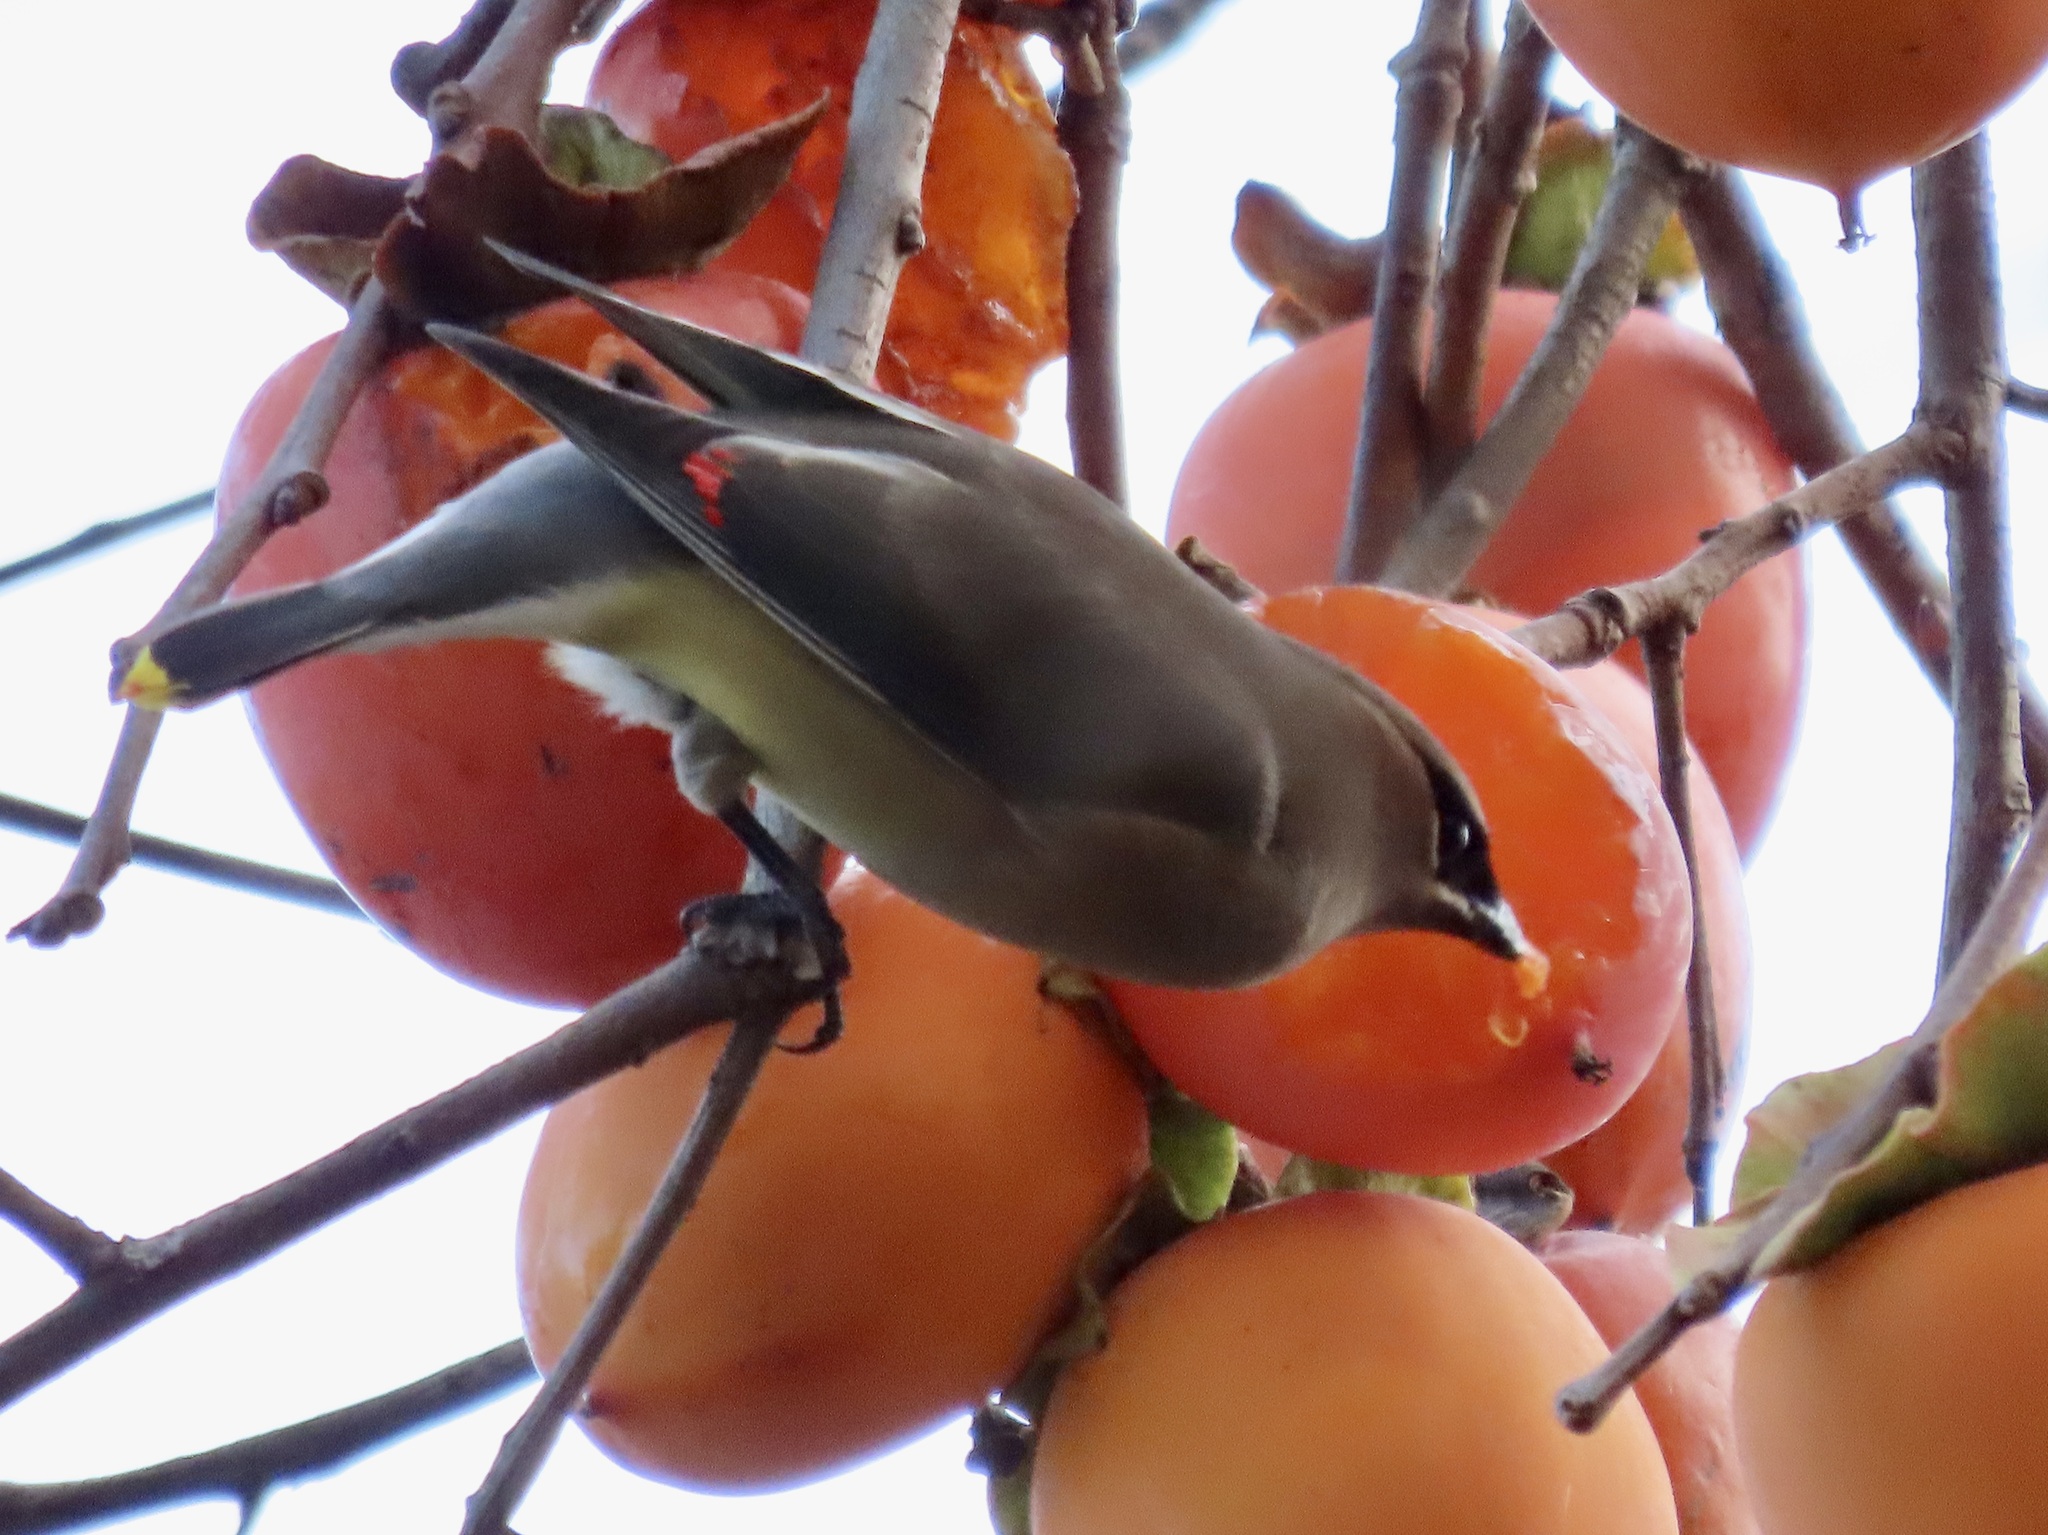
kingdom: Animalia
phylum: Chordata
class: Aves
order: Passeriformes
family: Bombycillidae
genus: Bombycilla
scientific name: Bombycilla cedrorum
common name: Cedar waxwing
